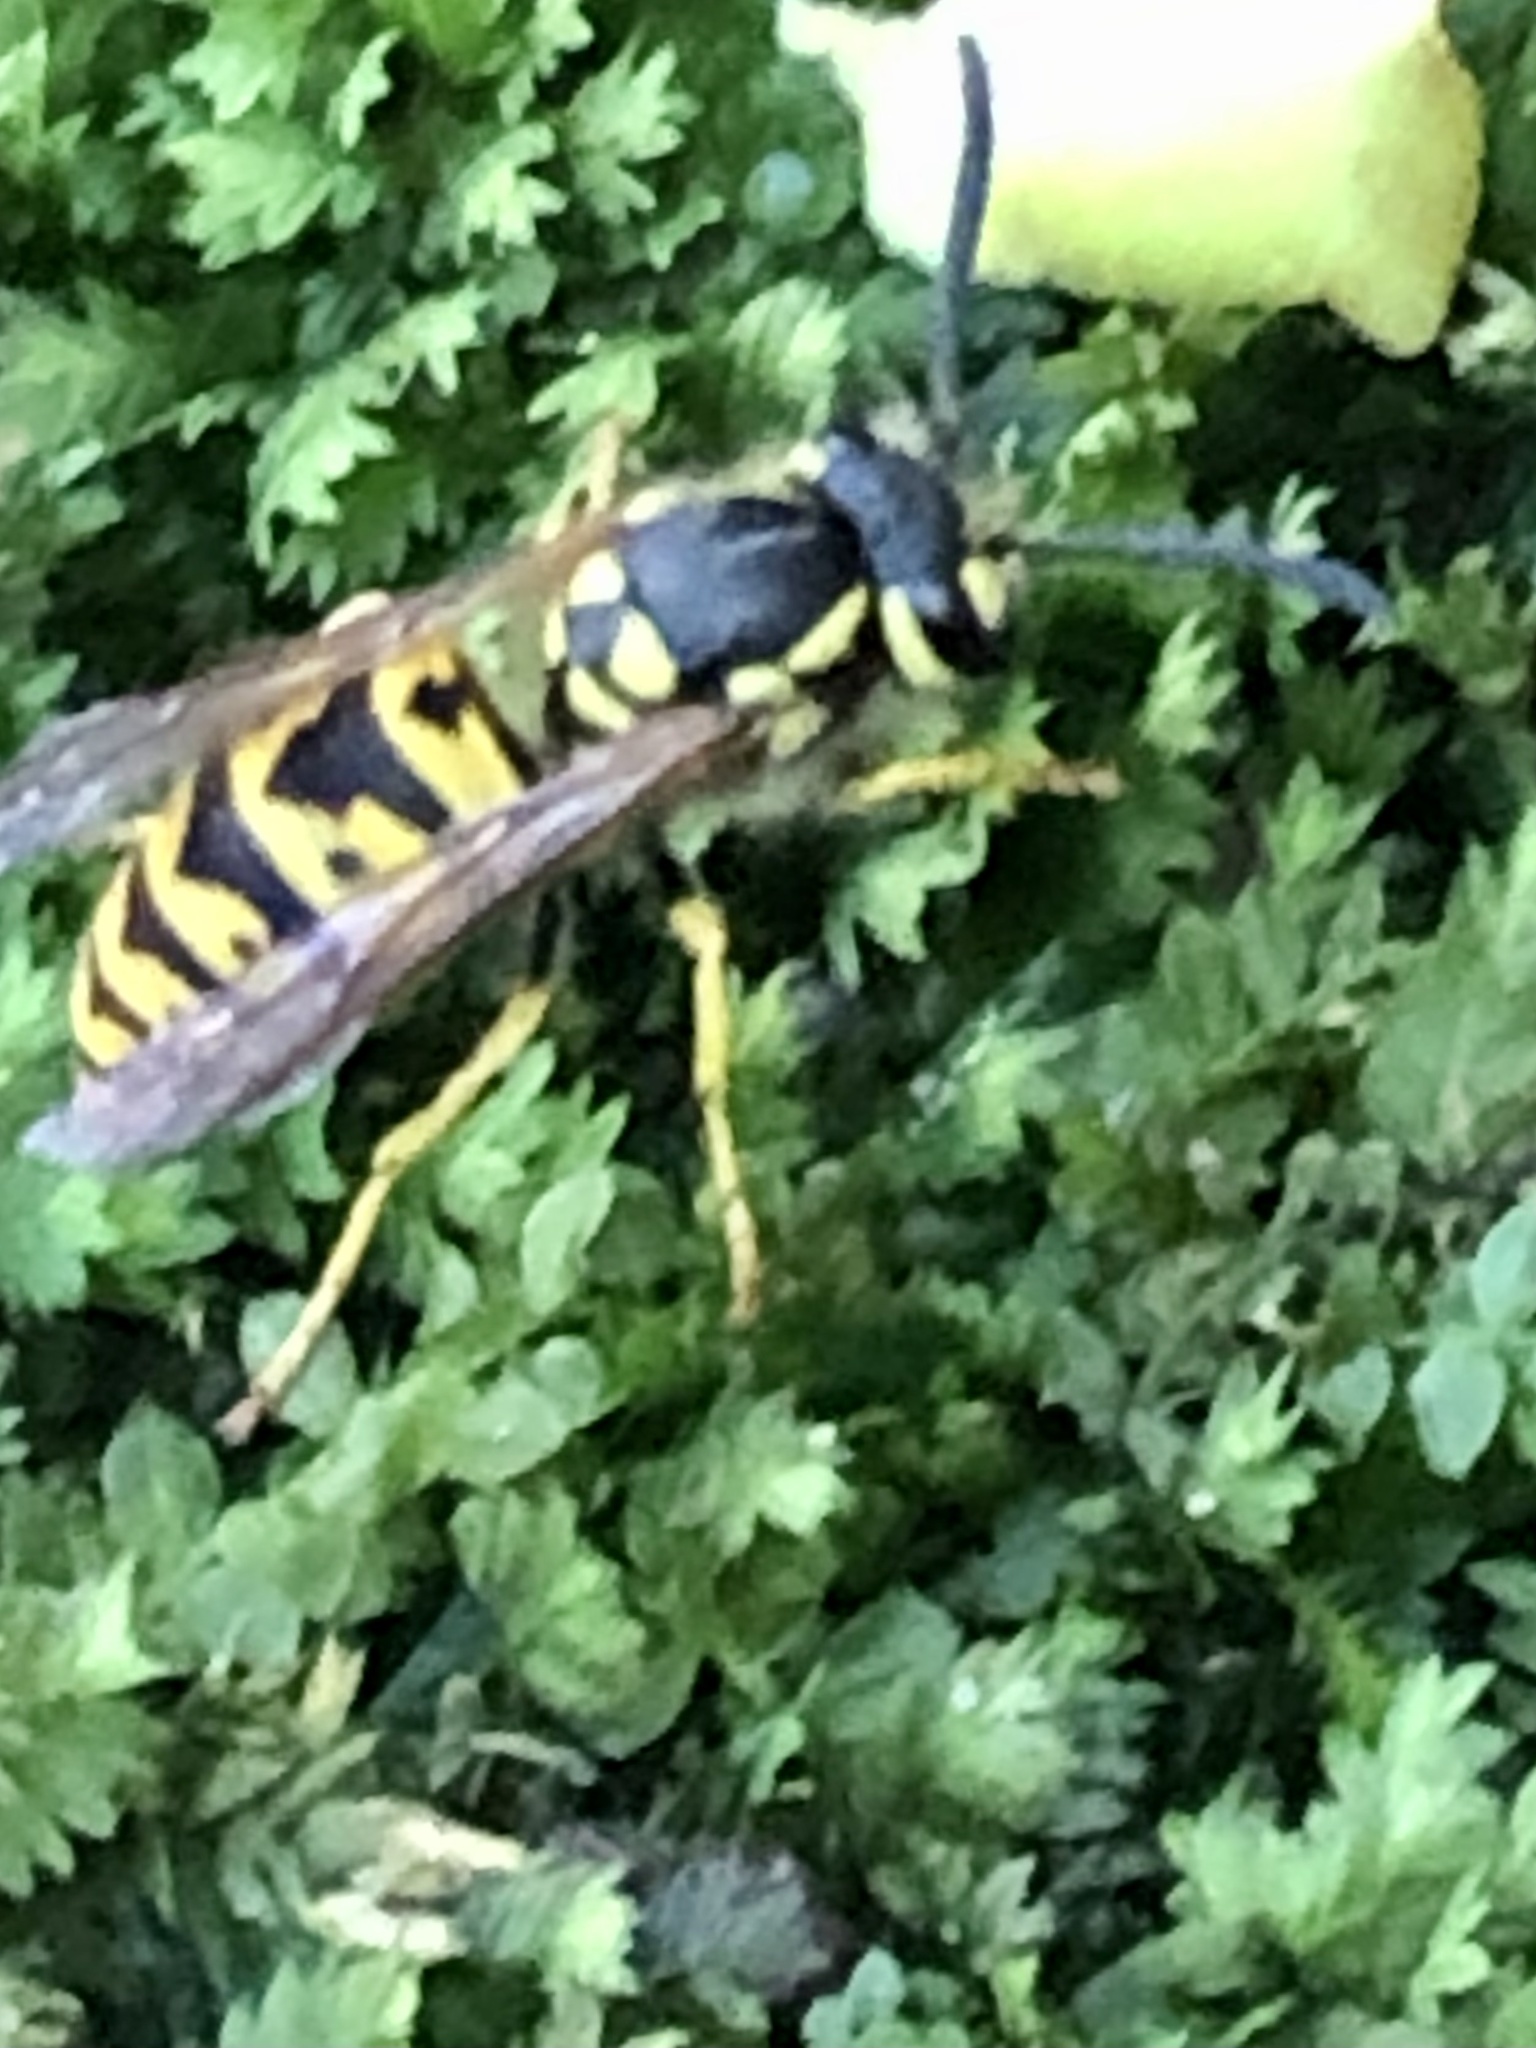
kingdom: Animalia
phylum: Arthropoda
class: Insecta
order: Hymenoptera
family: Vespidae
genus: Vespula
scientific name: Vespula germanica
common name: German wasp
